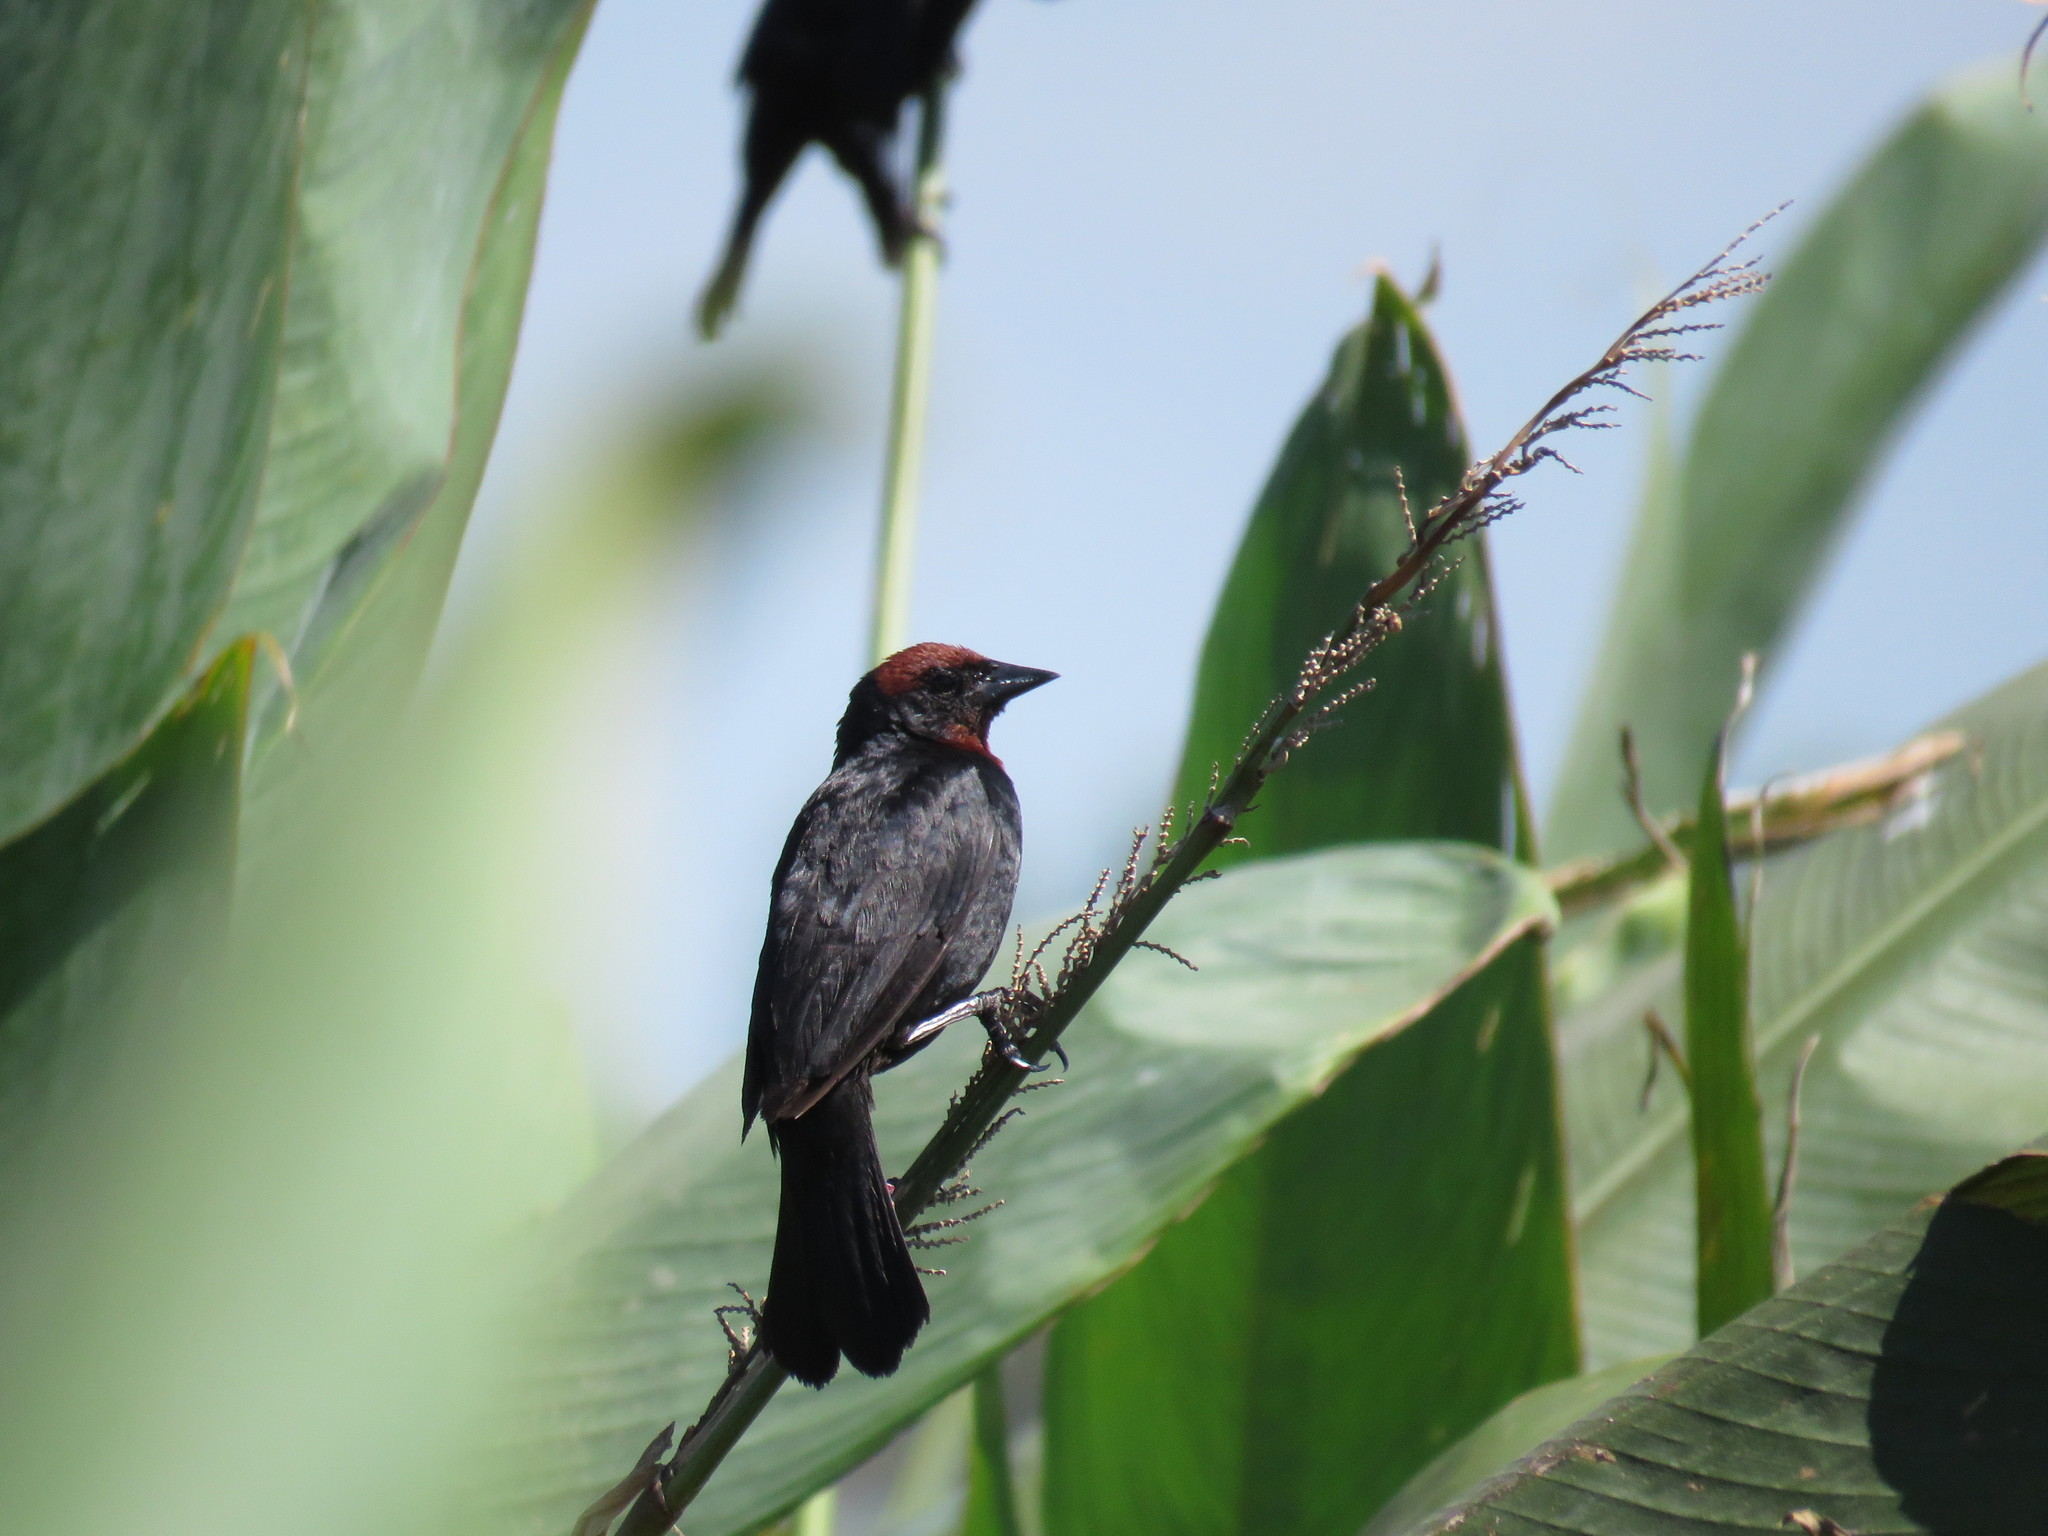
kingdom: Animalia
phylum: Chordata
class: Aves
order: Passeriformes
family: Icteridae
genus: Chrysomus
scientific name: Chrysomus ruficapillus
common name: Chestnut-capped blackbird
